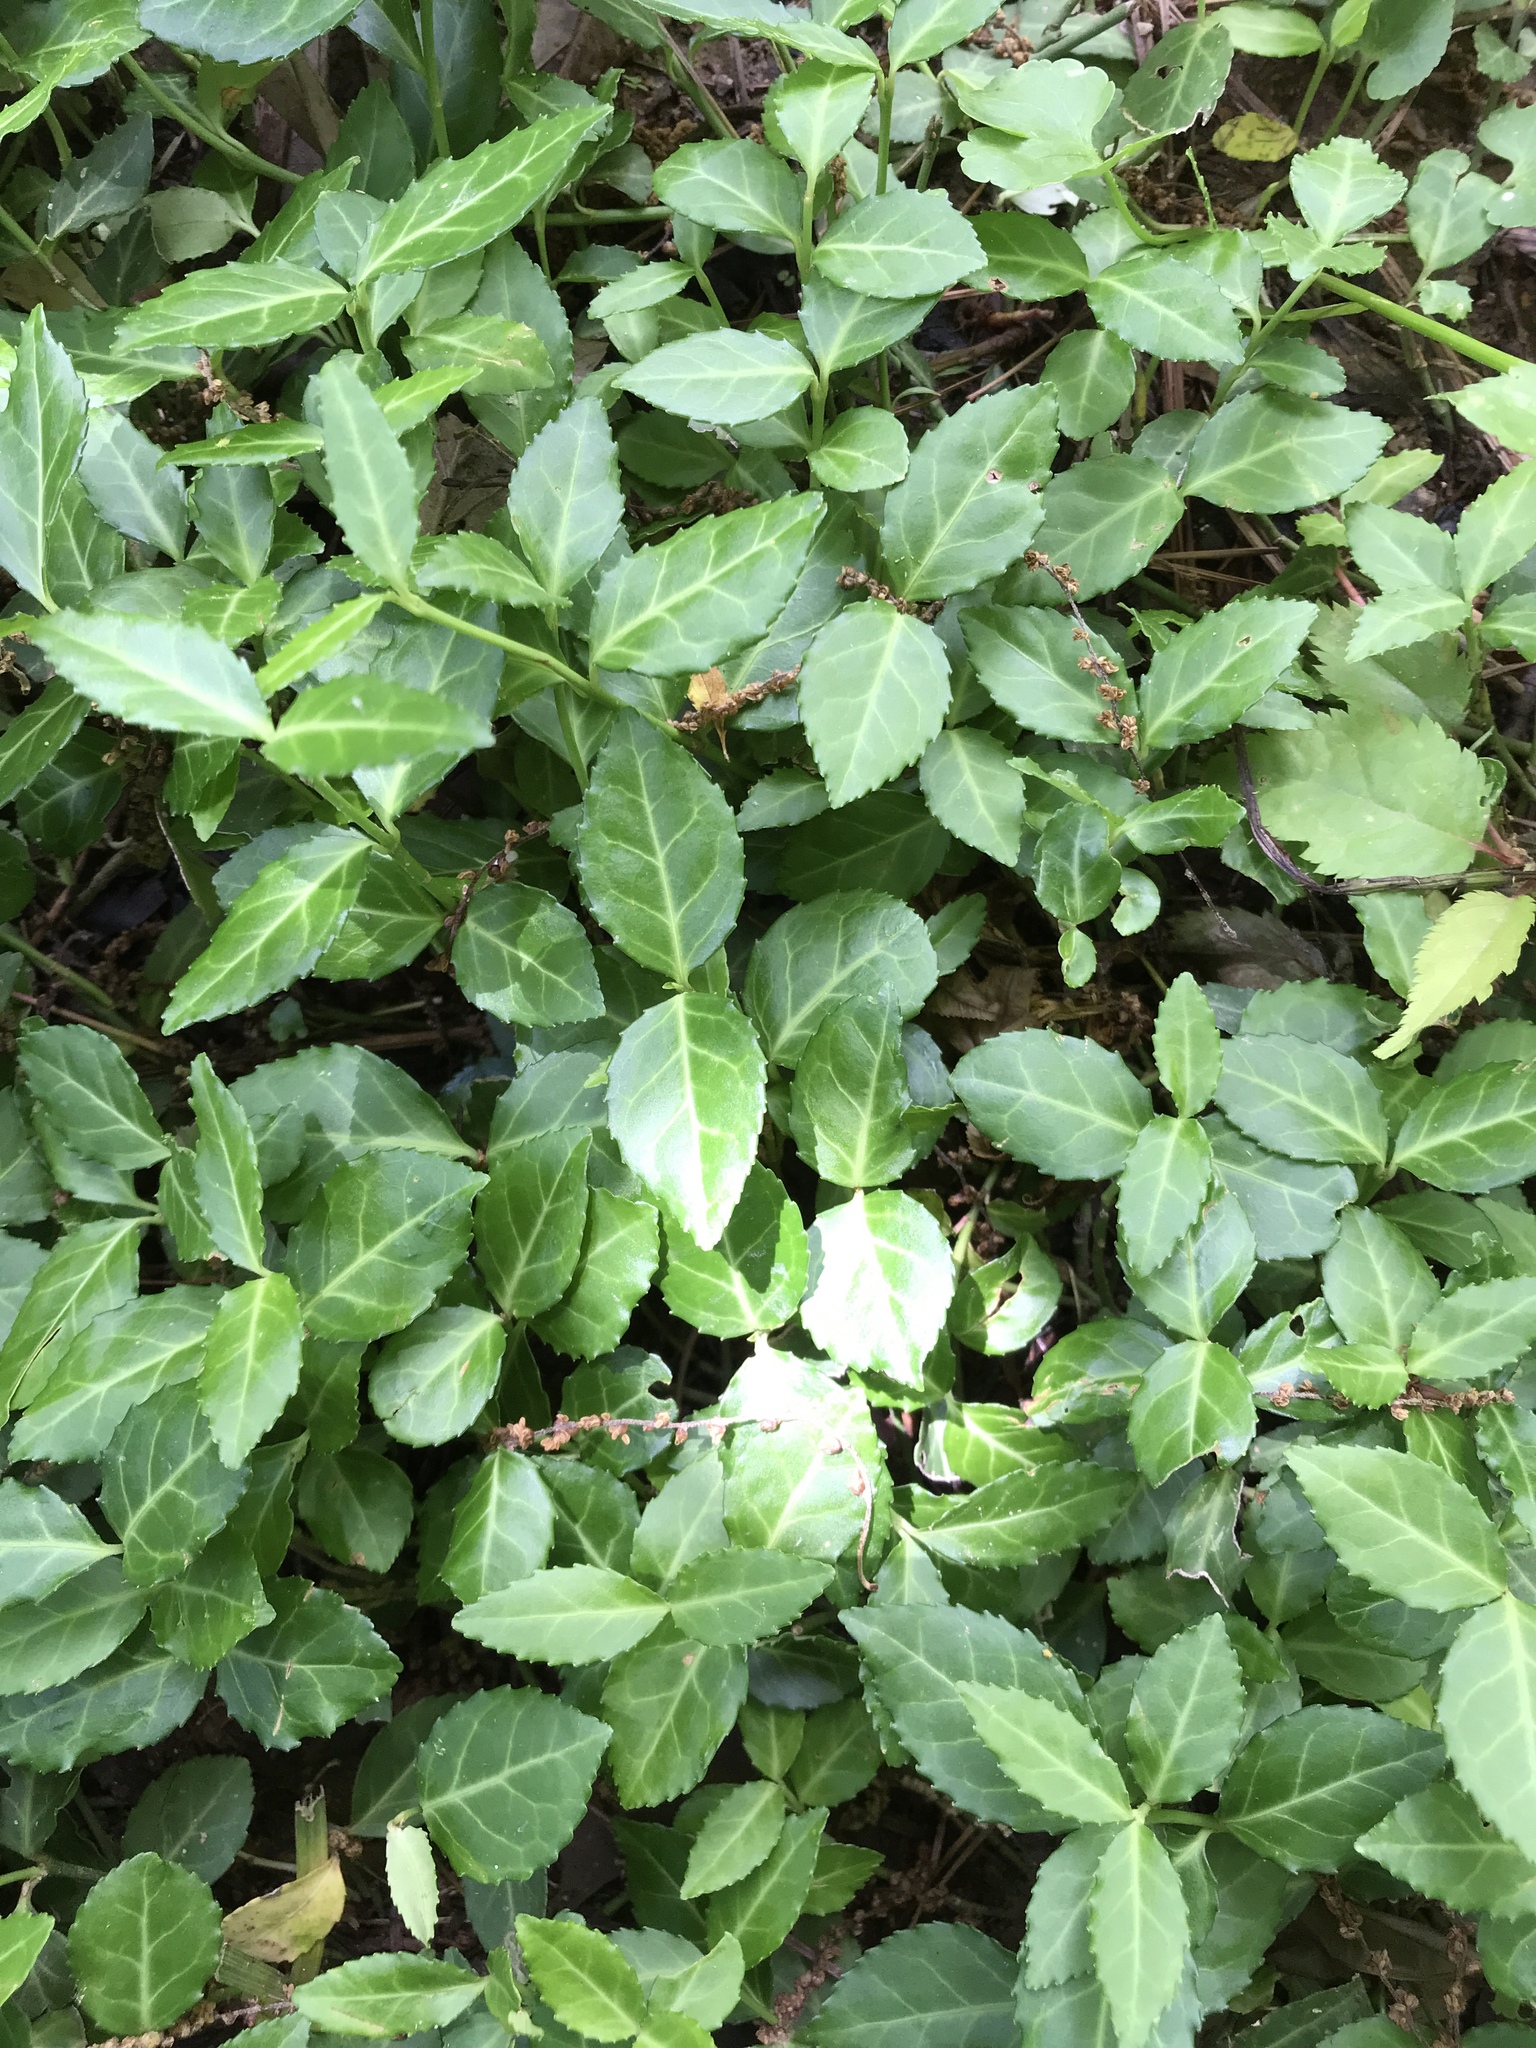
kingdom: Plantae
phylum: Tracheophyta
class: Magnoliopsida
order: Celastrales
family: Celastraceae
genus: Euonymus
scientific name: Euonymus fortunei
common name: Climbing euonymus
